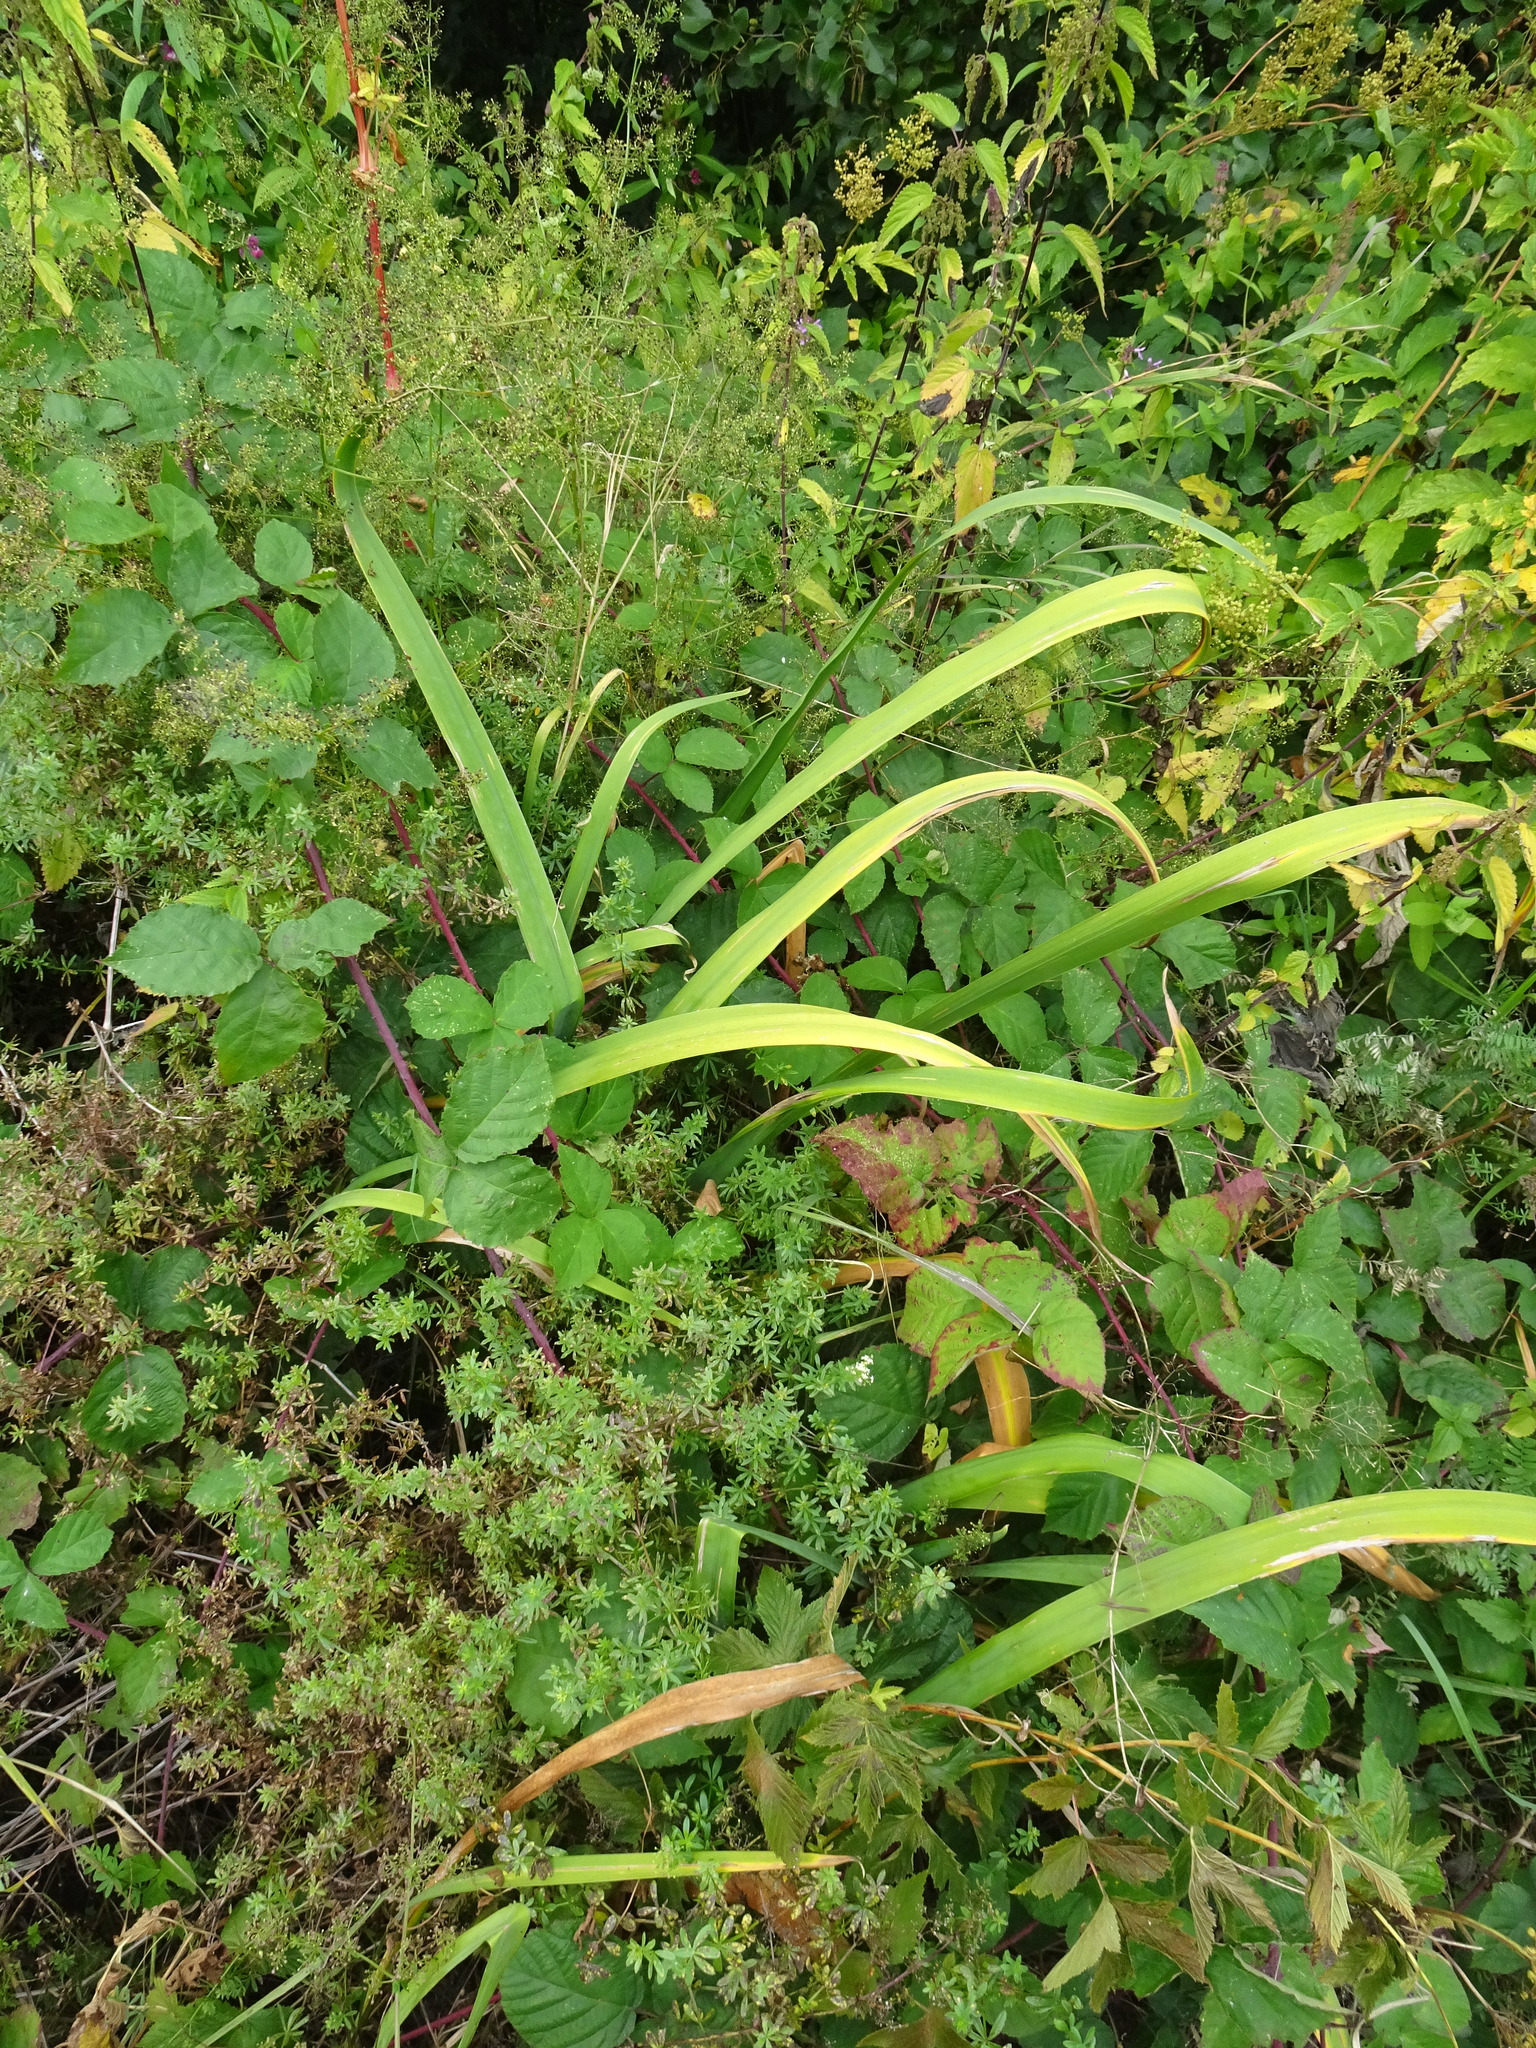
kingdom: Plantae
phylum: Tracheophyta
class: Liliopsida
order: Asparagales
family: Iridaceae
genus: Iris
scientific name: Iris pseudacorus
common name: Yellow flag
